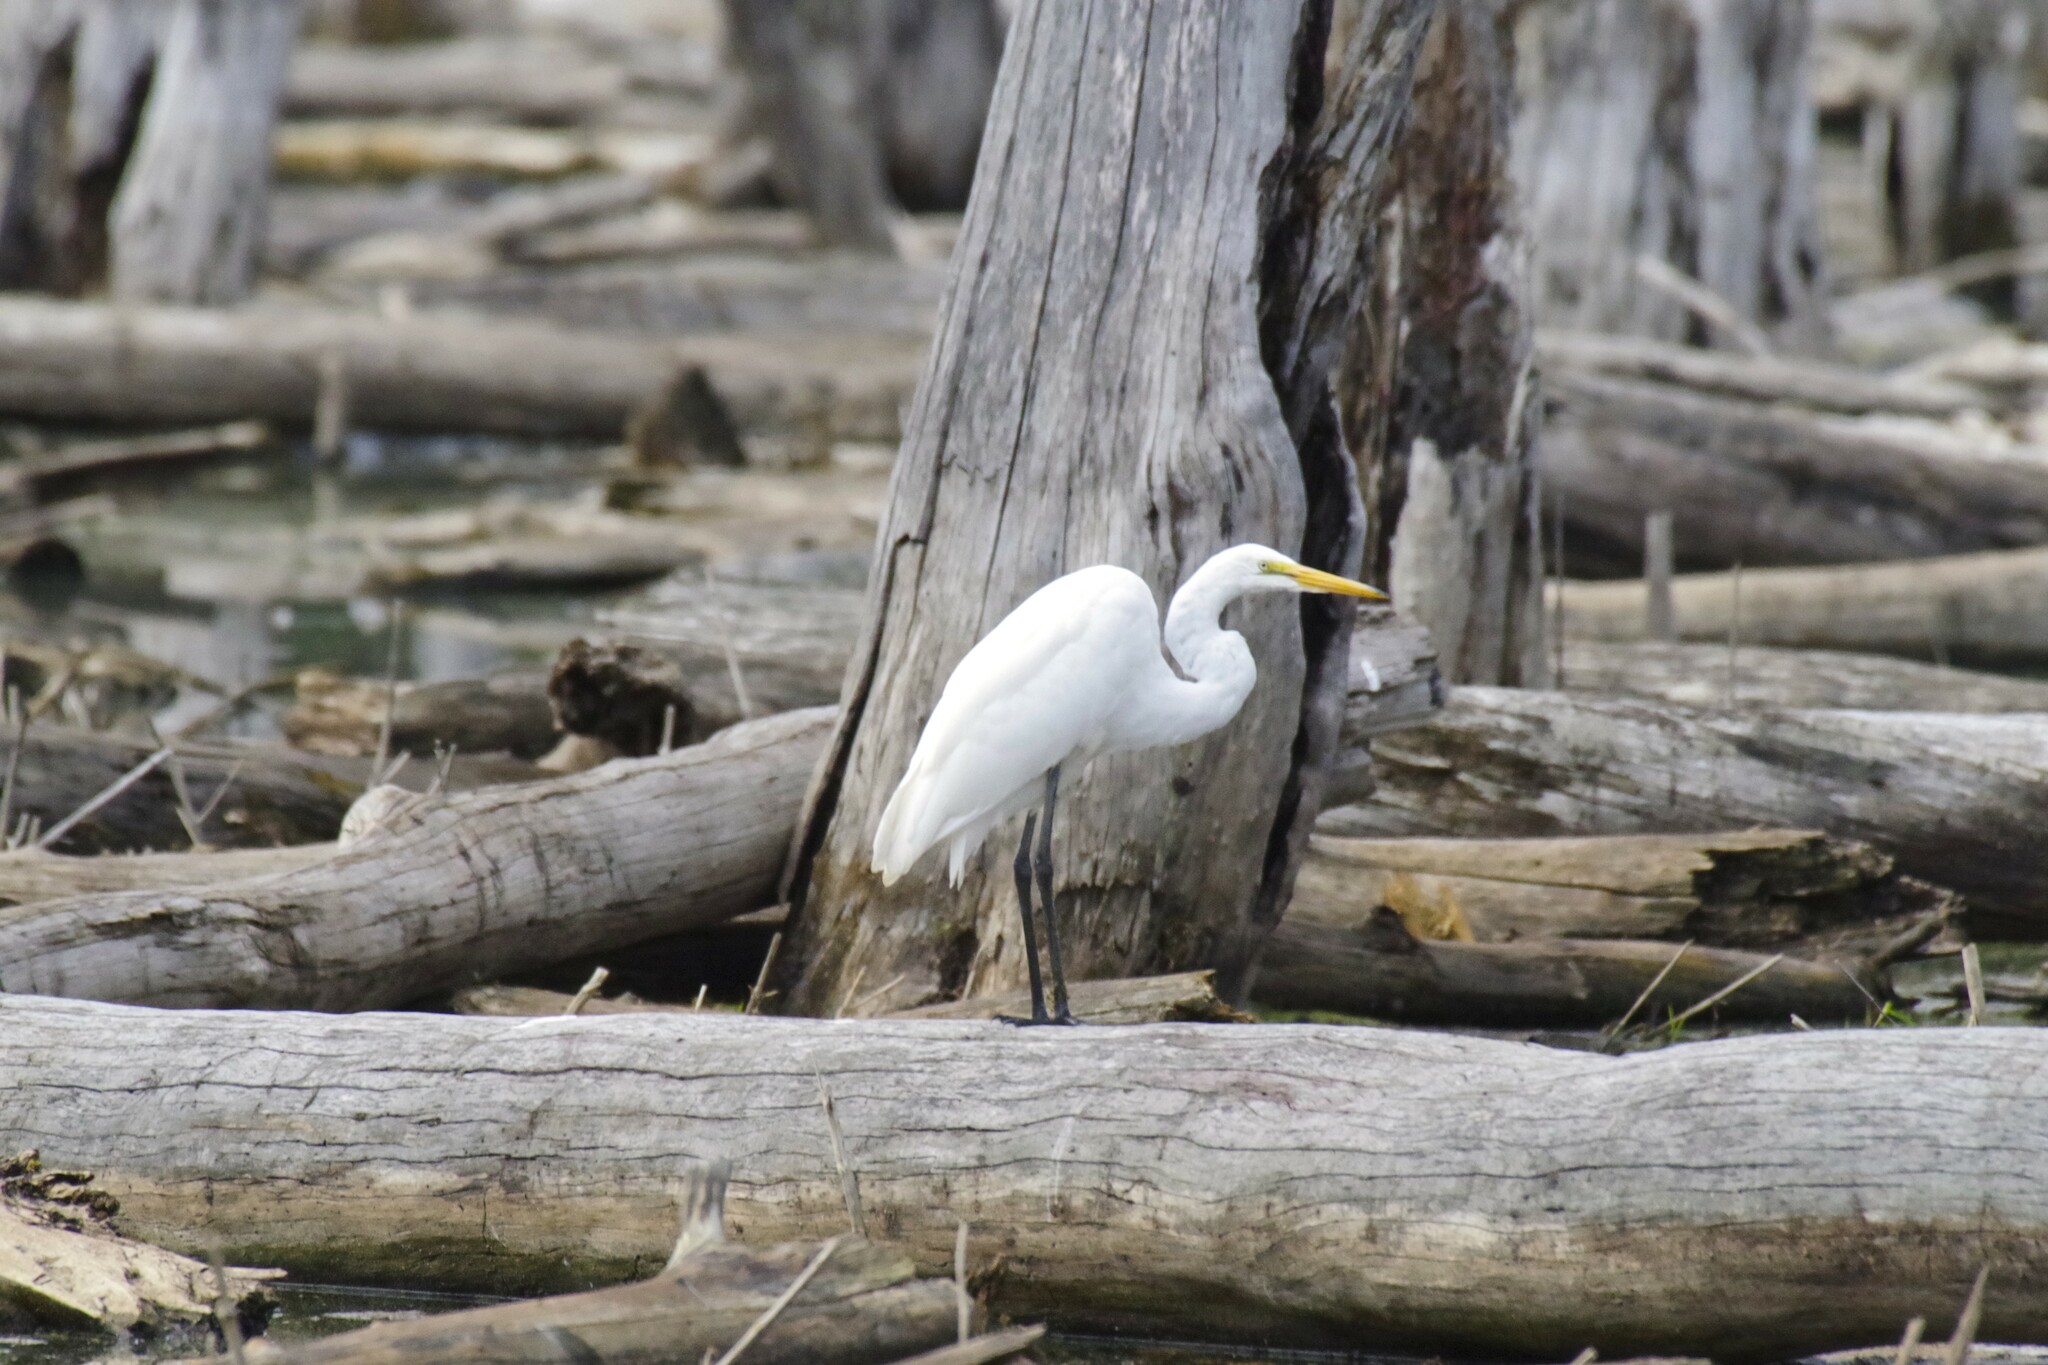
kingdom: Animalia
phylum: Chordata
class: Aves
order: Pelecaniformes
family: Ardeidae
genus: Ardea
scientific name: Ardea alba
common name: Great egret
